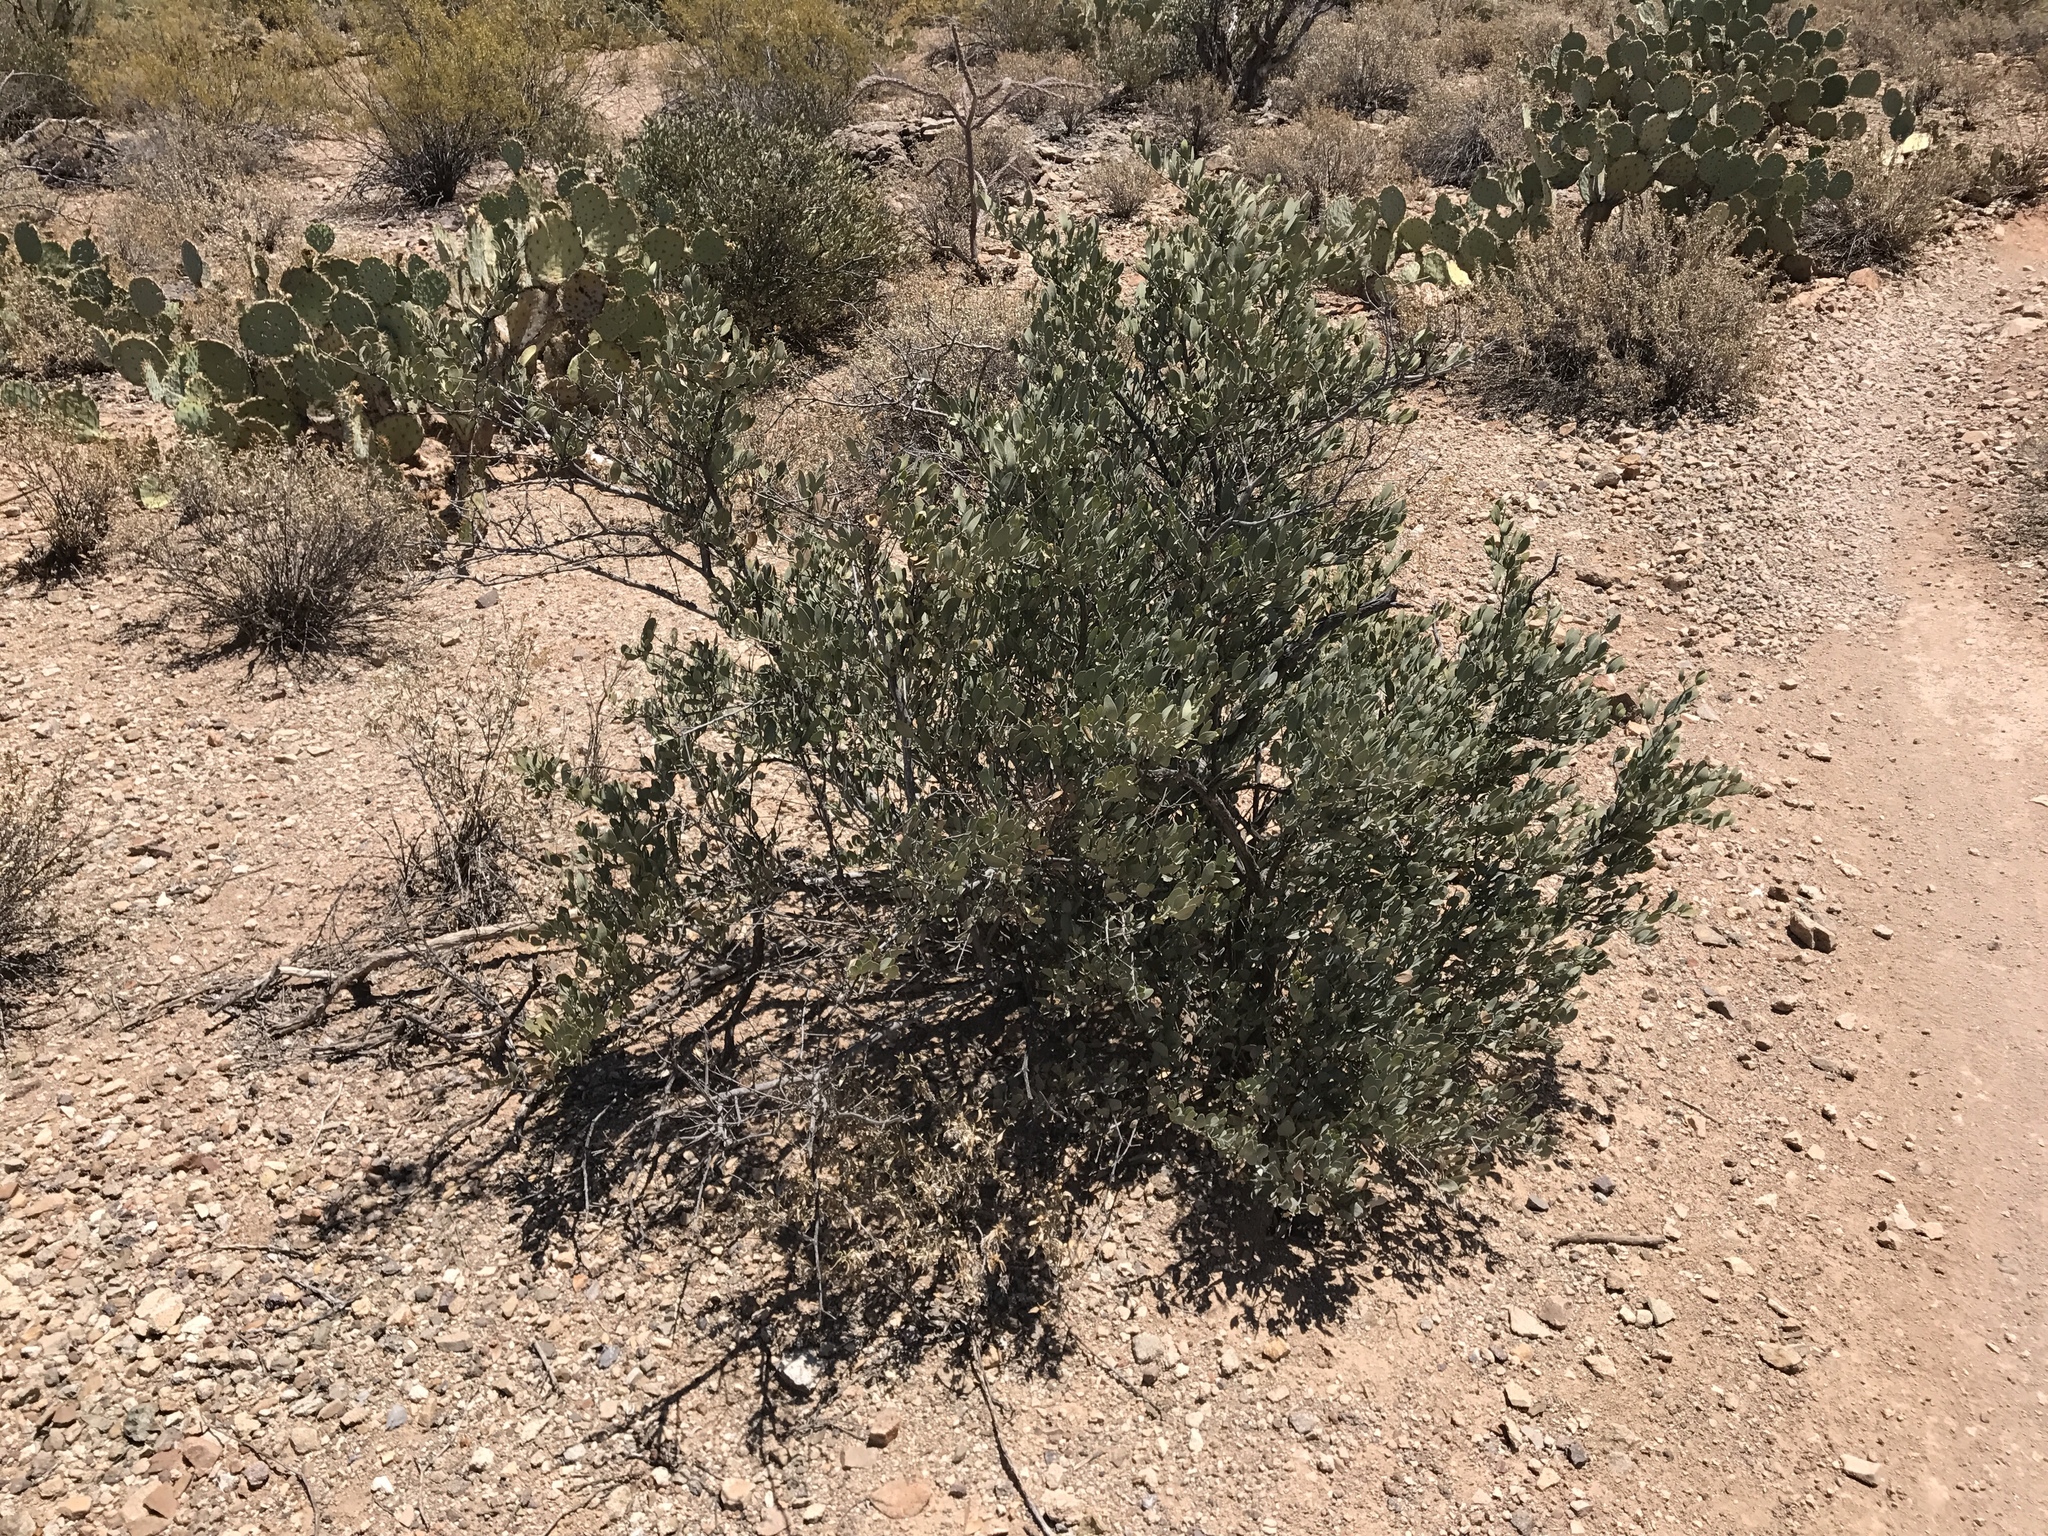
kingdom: Plantae
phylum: Tracheophyta
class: Magnoliopsida
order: Caryophyllales
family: Simmondsiaceae
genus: Simmondsia
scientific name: Simmondsia chinensis
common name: Jojoba
